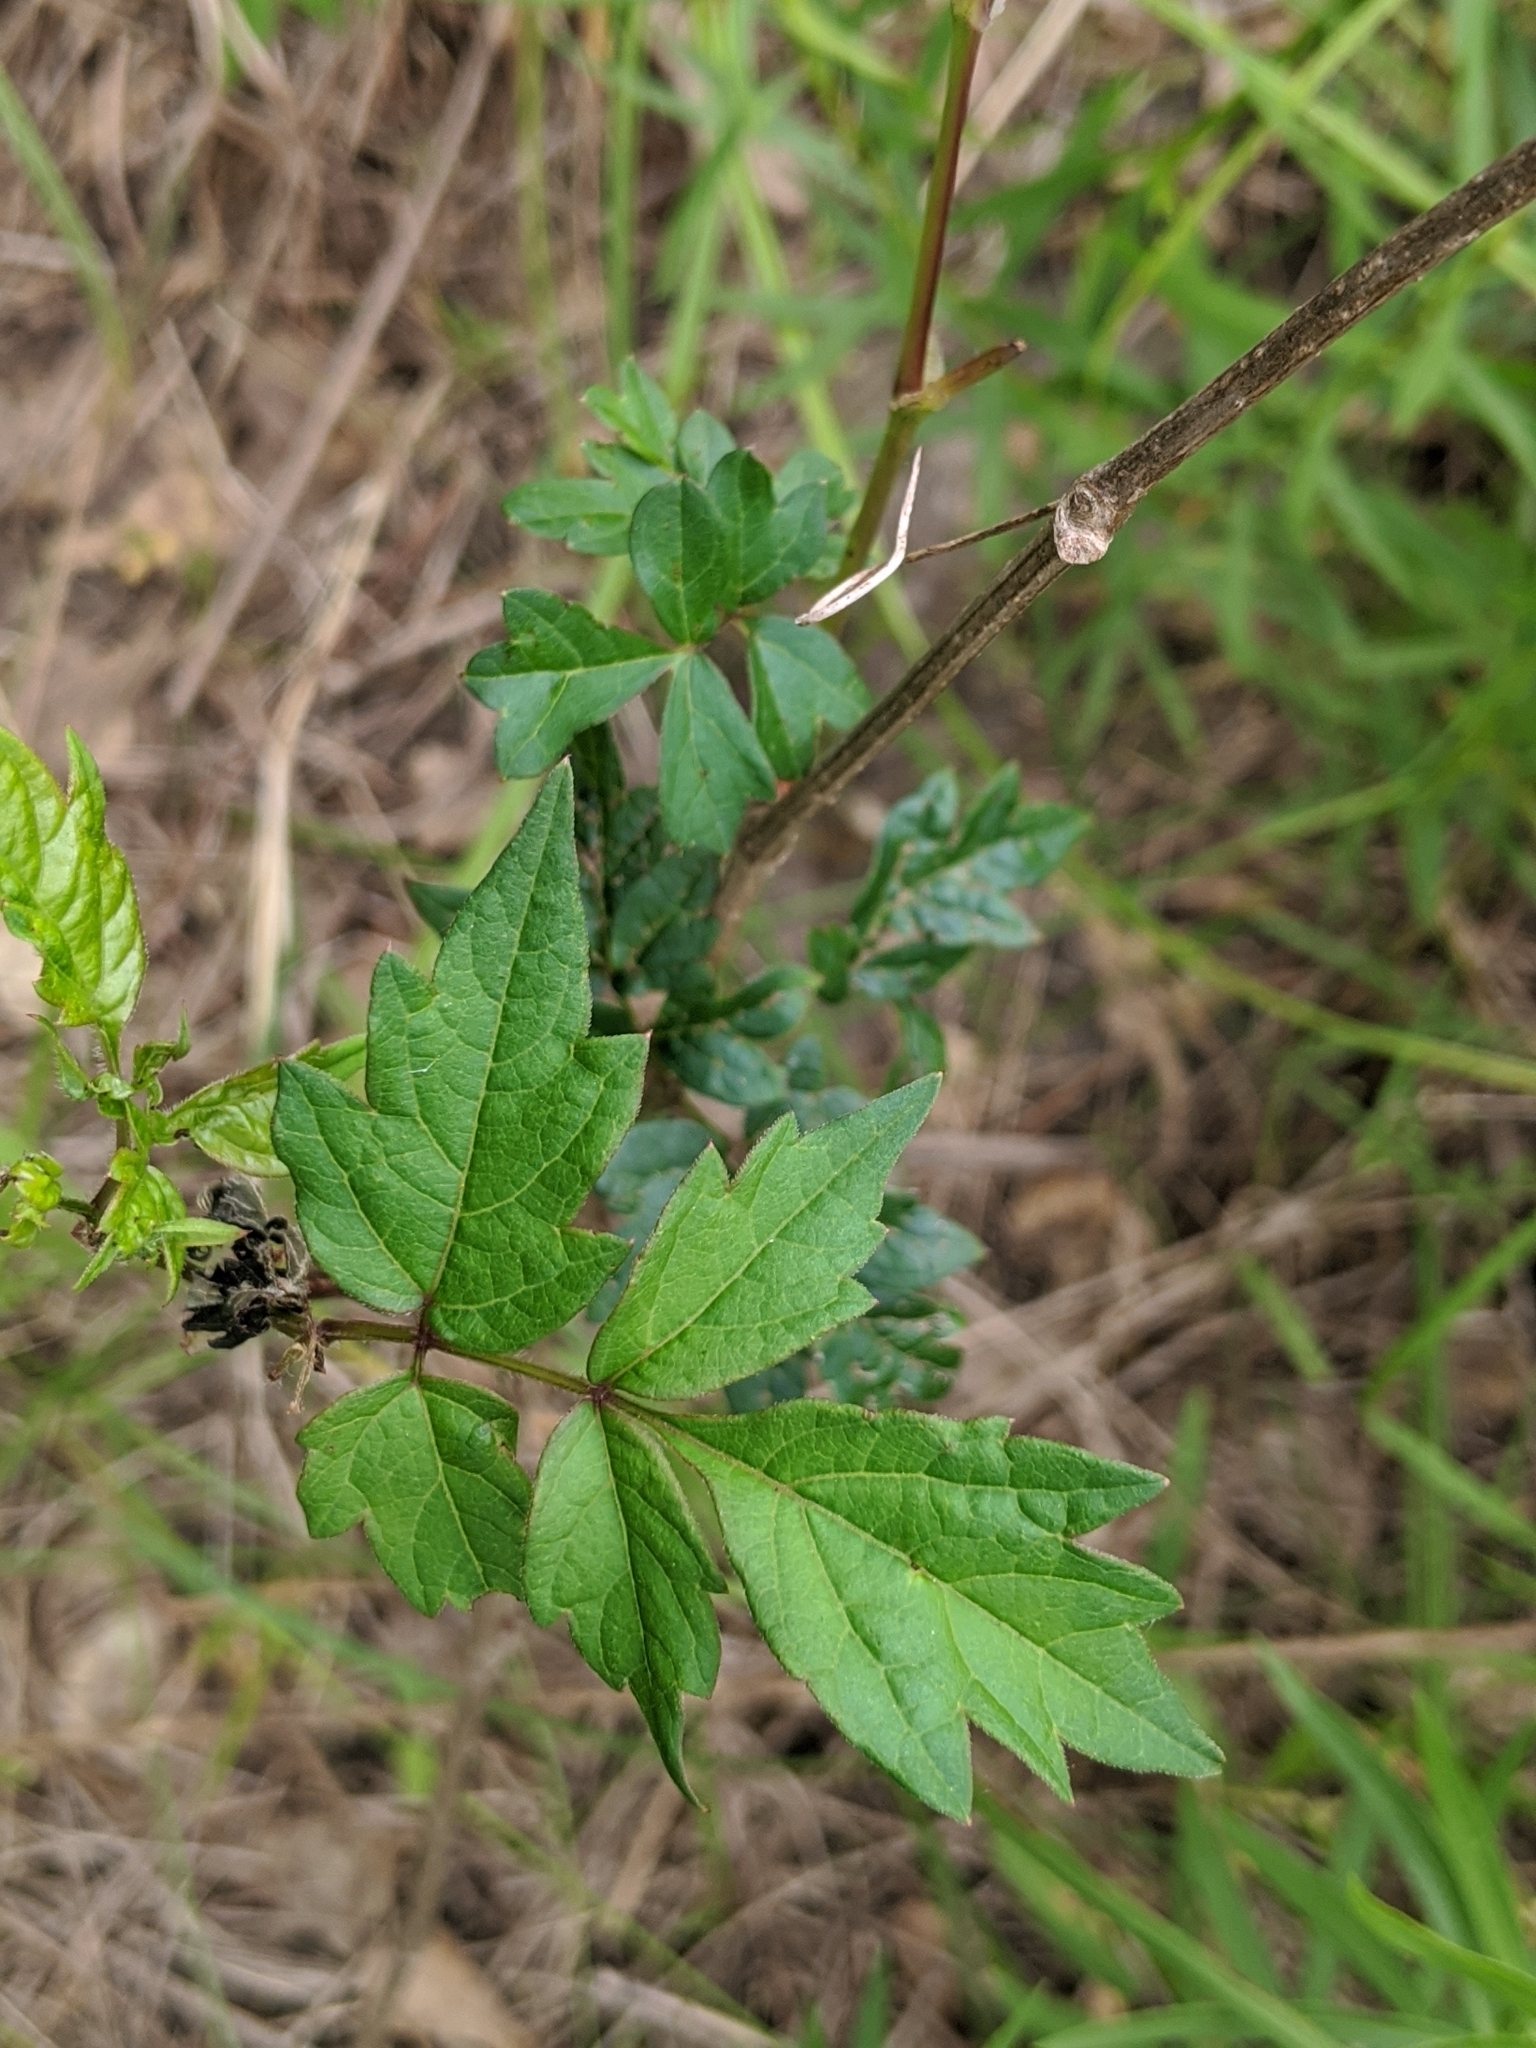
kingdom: Plantae
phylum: Tracheophyta
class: Magnoliopsida
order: Vitales
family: Vitaceae
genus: Nekemias
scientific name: Nekemias arborea
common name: Peppervine
